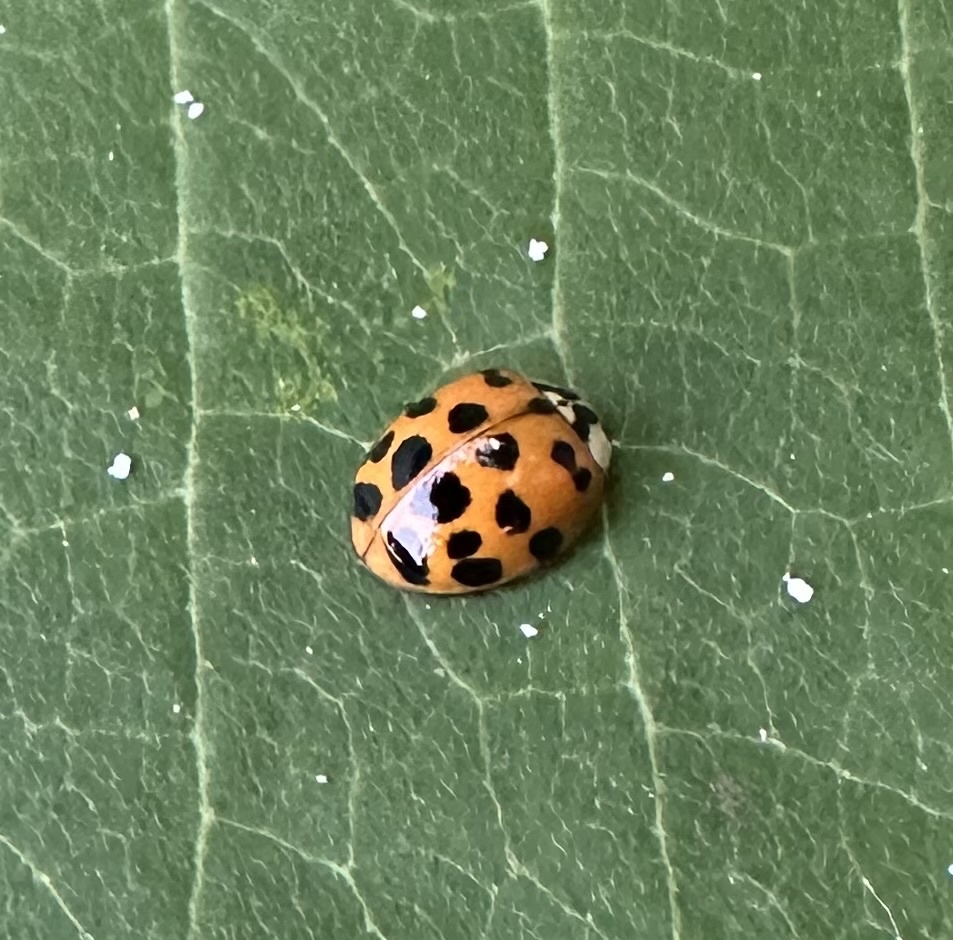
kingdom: Animalia
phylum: Arthropoda
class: Insecta
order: Coleoptera
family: Coccinellidae
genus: Harmonia
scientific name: Harmonia axyridis
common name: Harlequin ladybird
